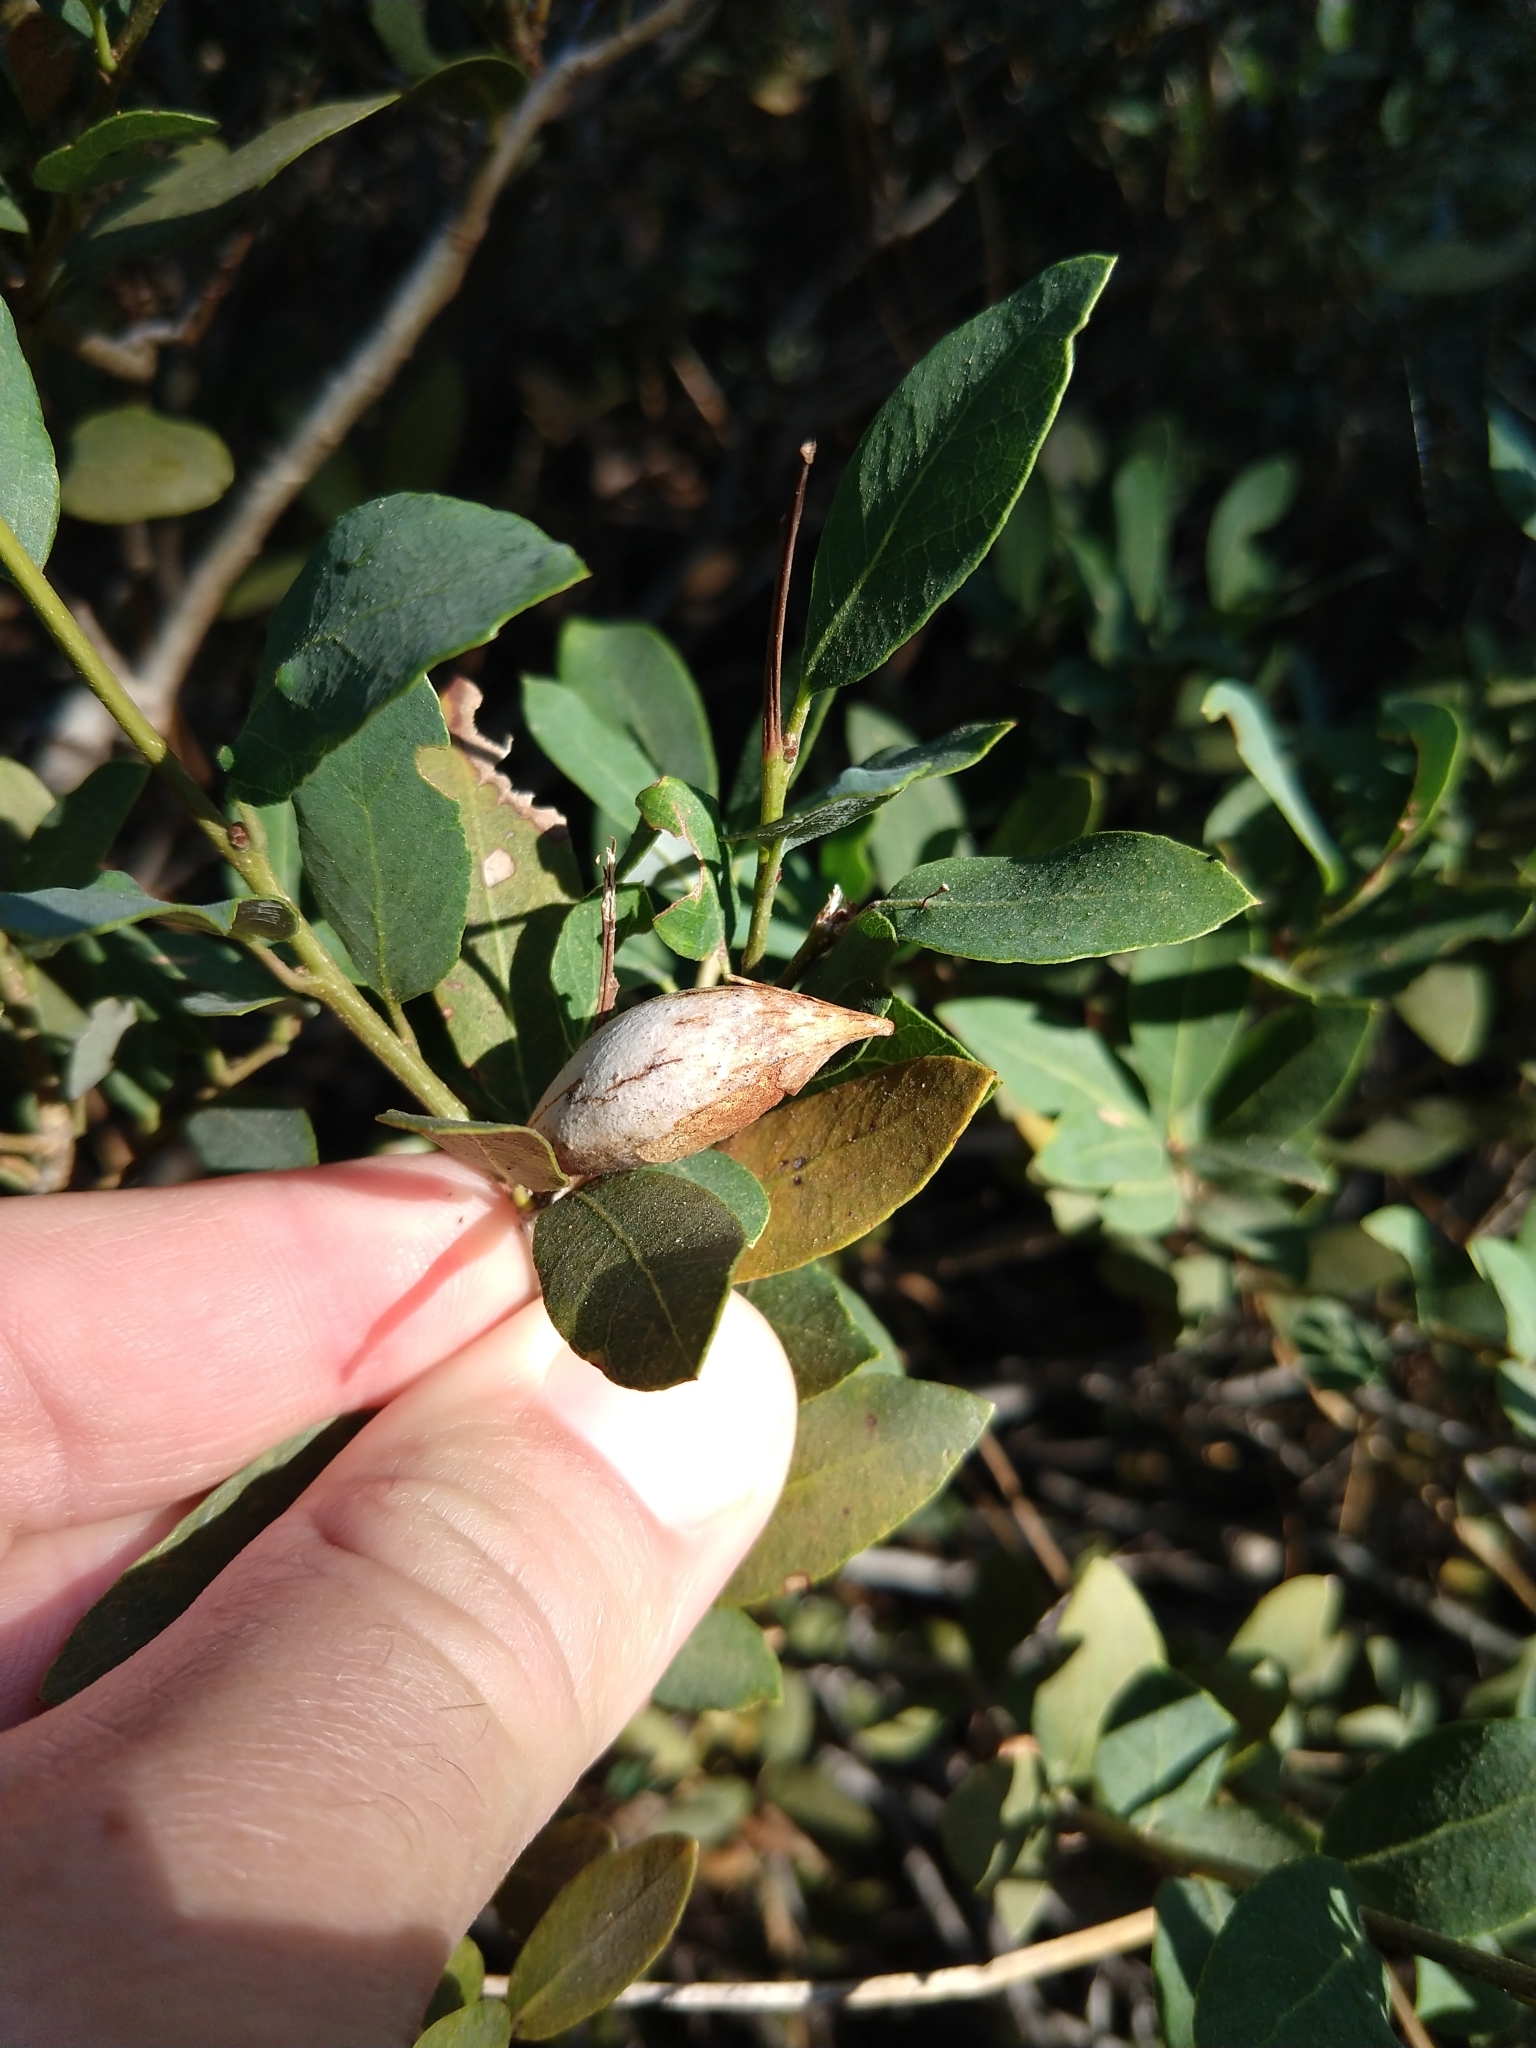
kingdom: Animalia
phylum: Arthropoda
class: Insecta
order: Hymenoptera
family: Cynipidae
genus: Heteroecus
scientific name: Heteroecus pacificus
